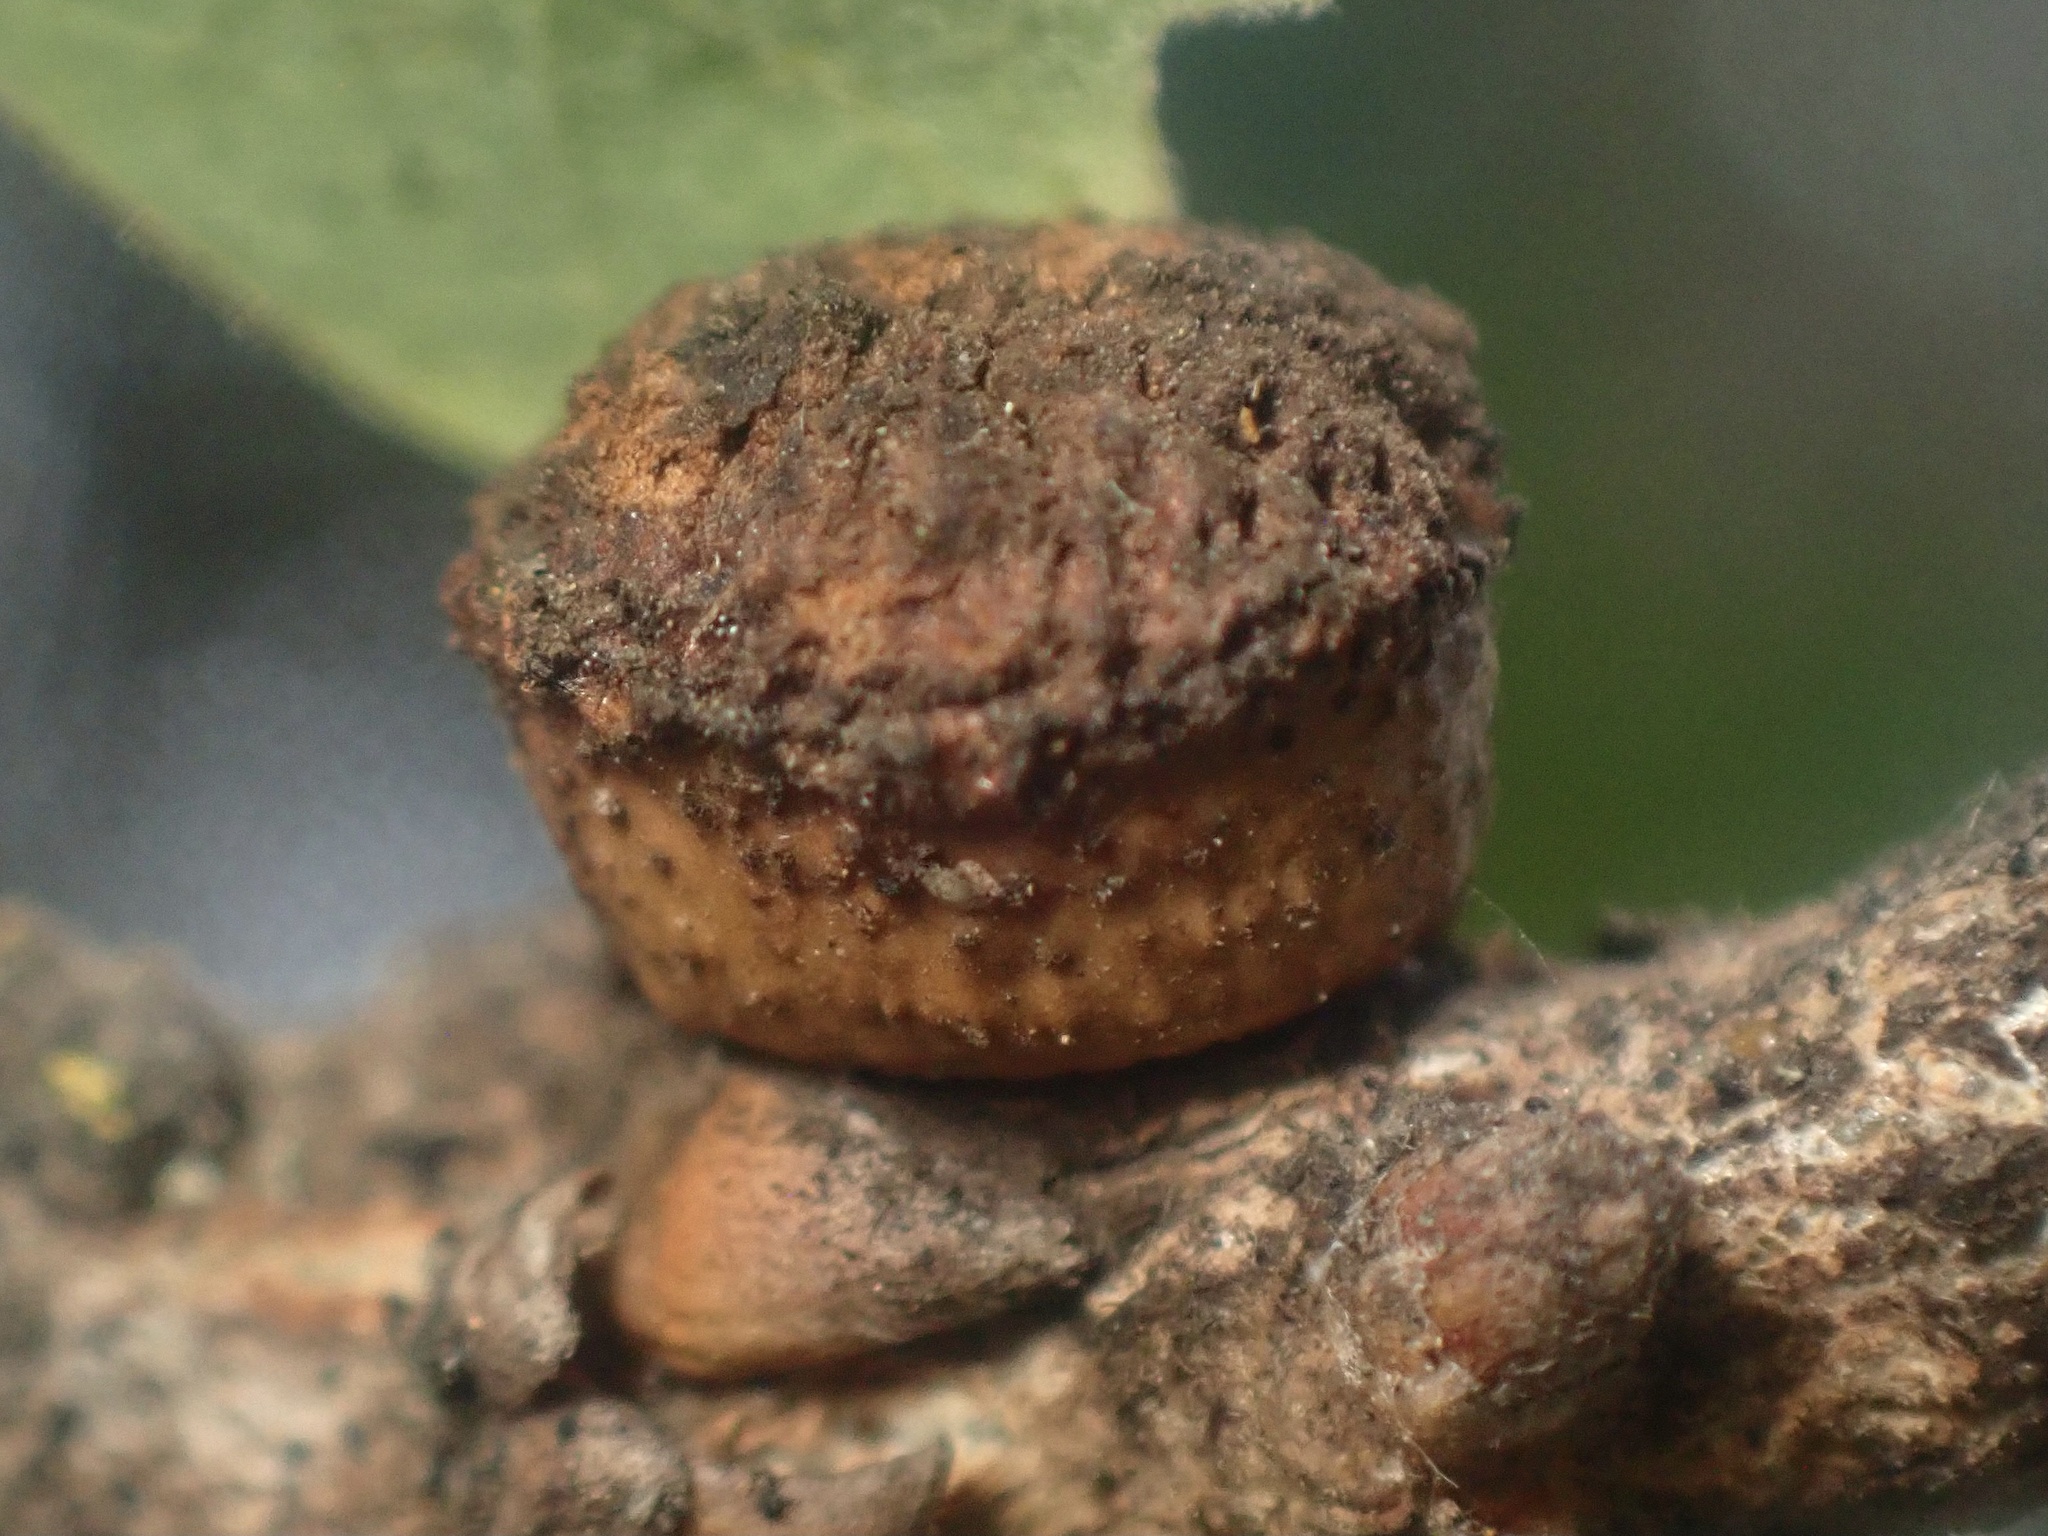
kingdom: Animalia
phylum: Arthropoda
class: Insecta
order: Hymenoptera
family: Cynipidae
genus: Disholcaspis
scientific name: Disholcaspis
